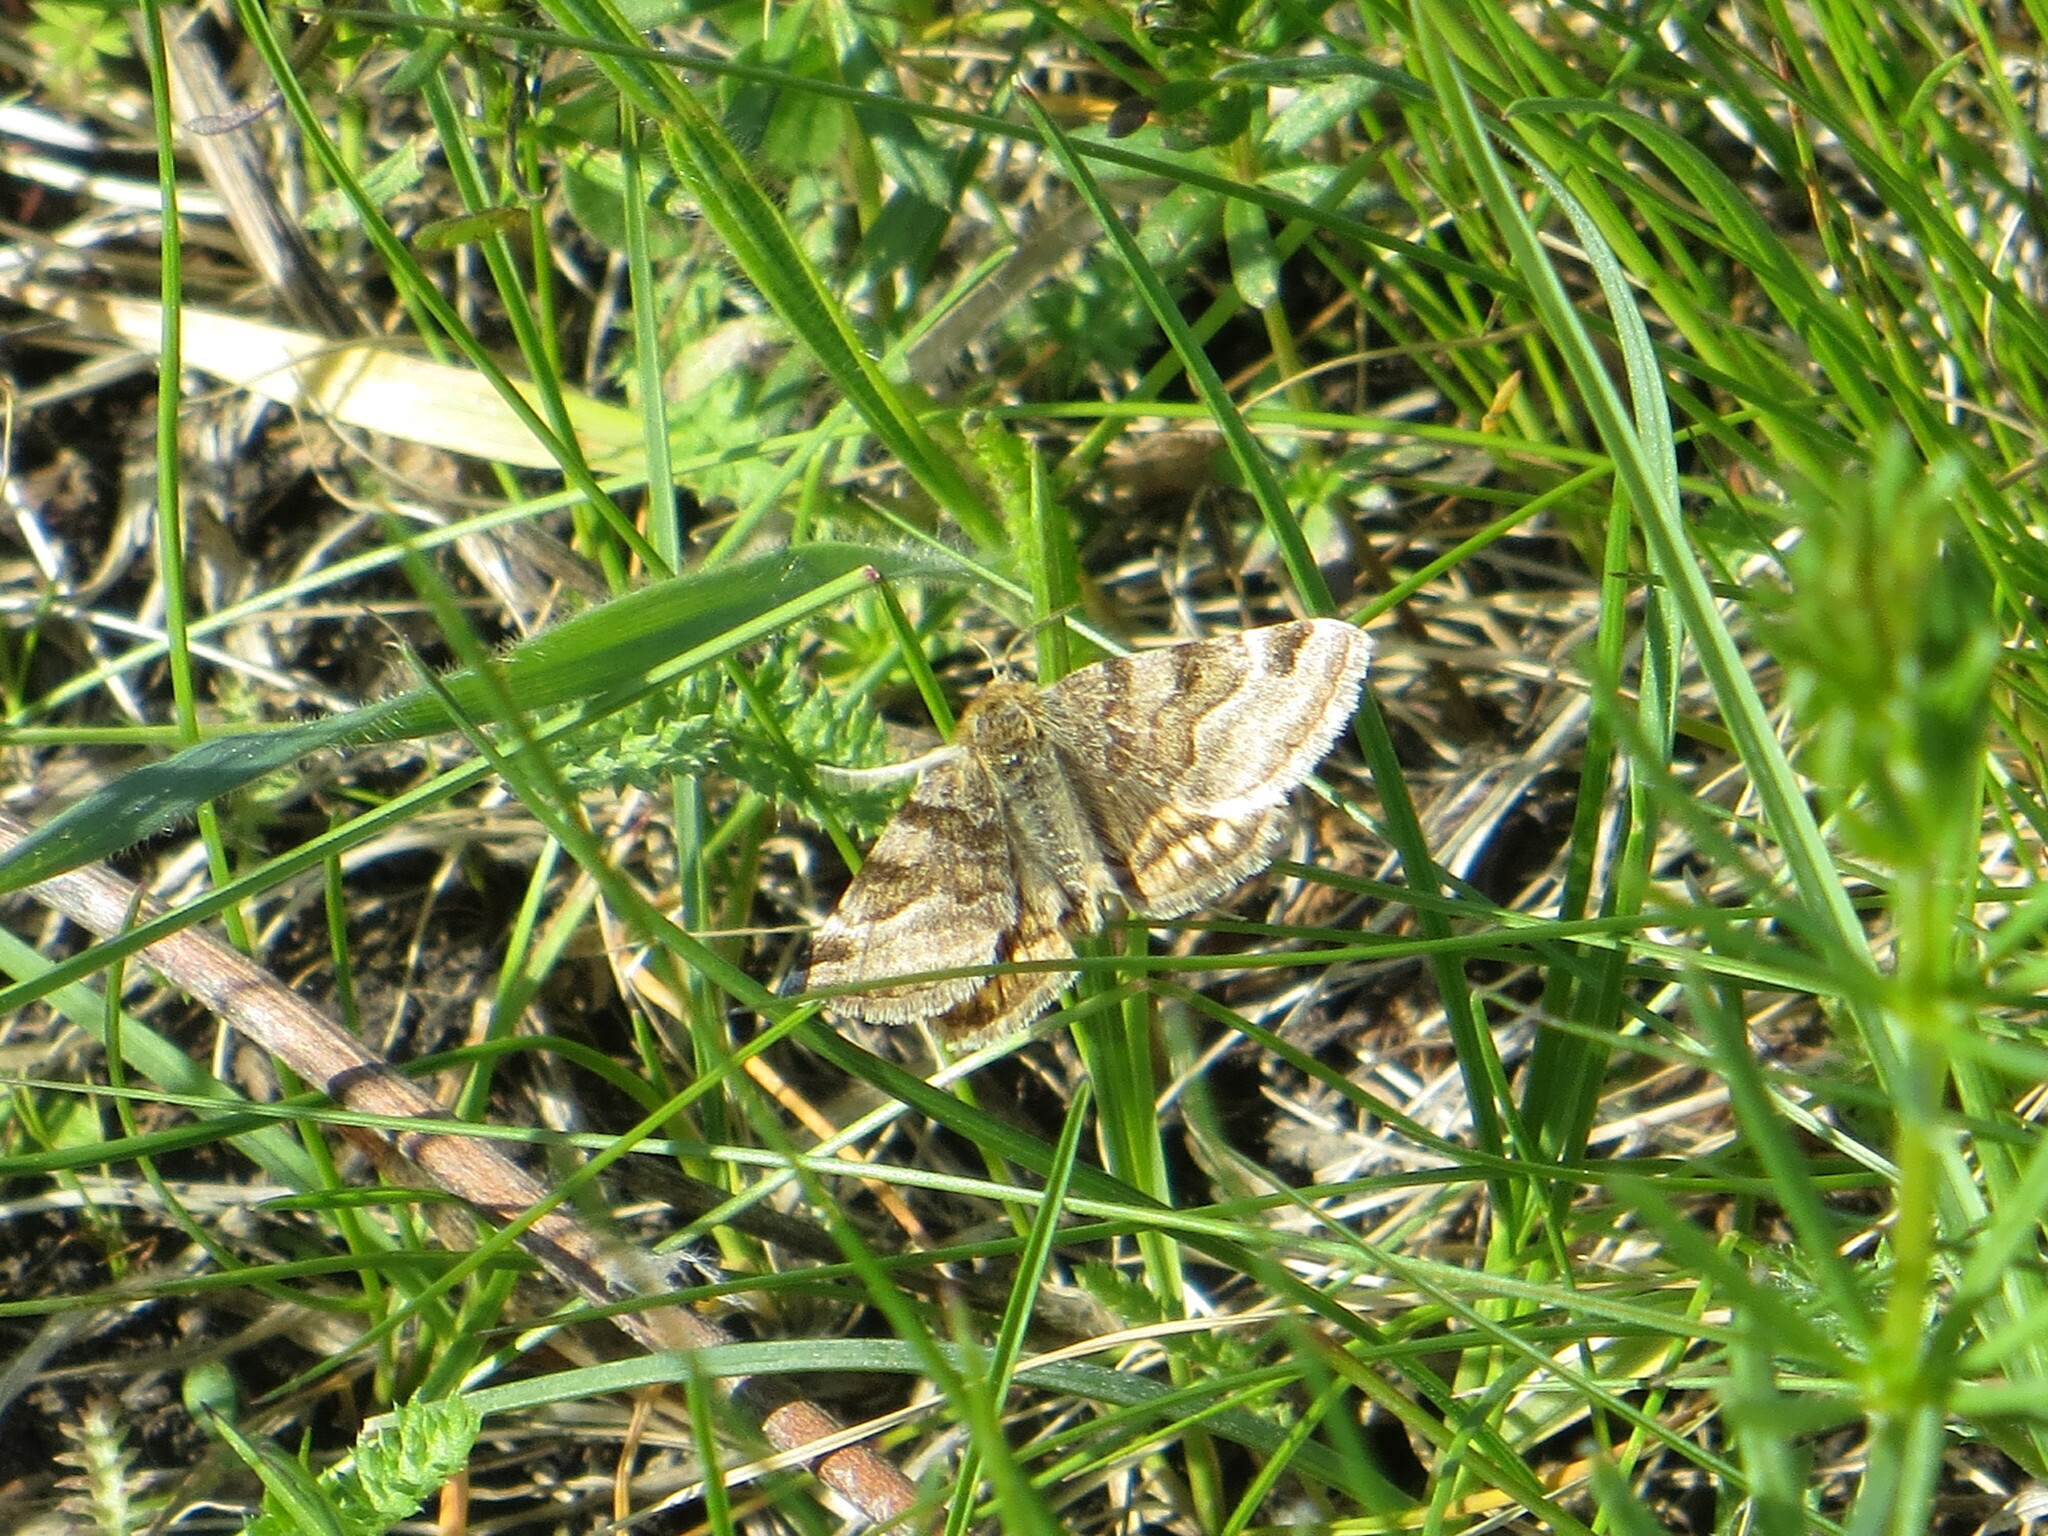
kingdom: Animalia
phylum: Arthropoda
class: Insecta
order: Lepidoptera
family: Erebidae
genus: Euclidia
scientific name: Euclidia glyphica
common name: Burnet companion
